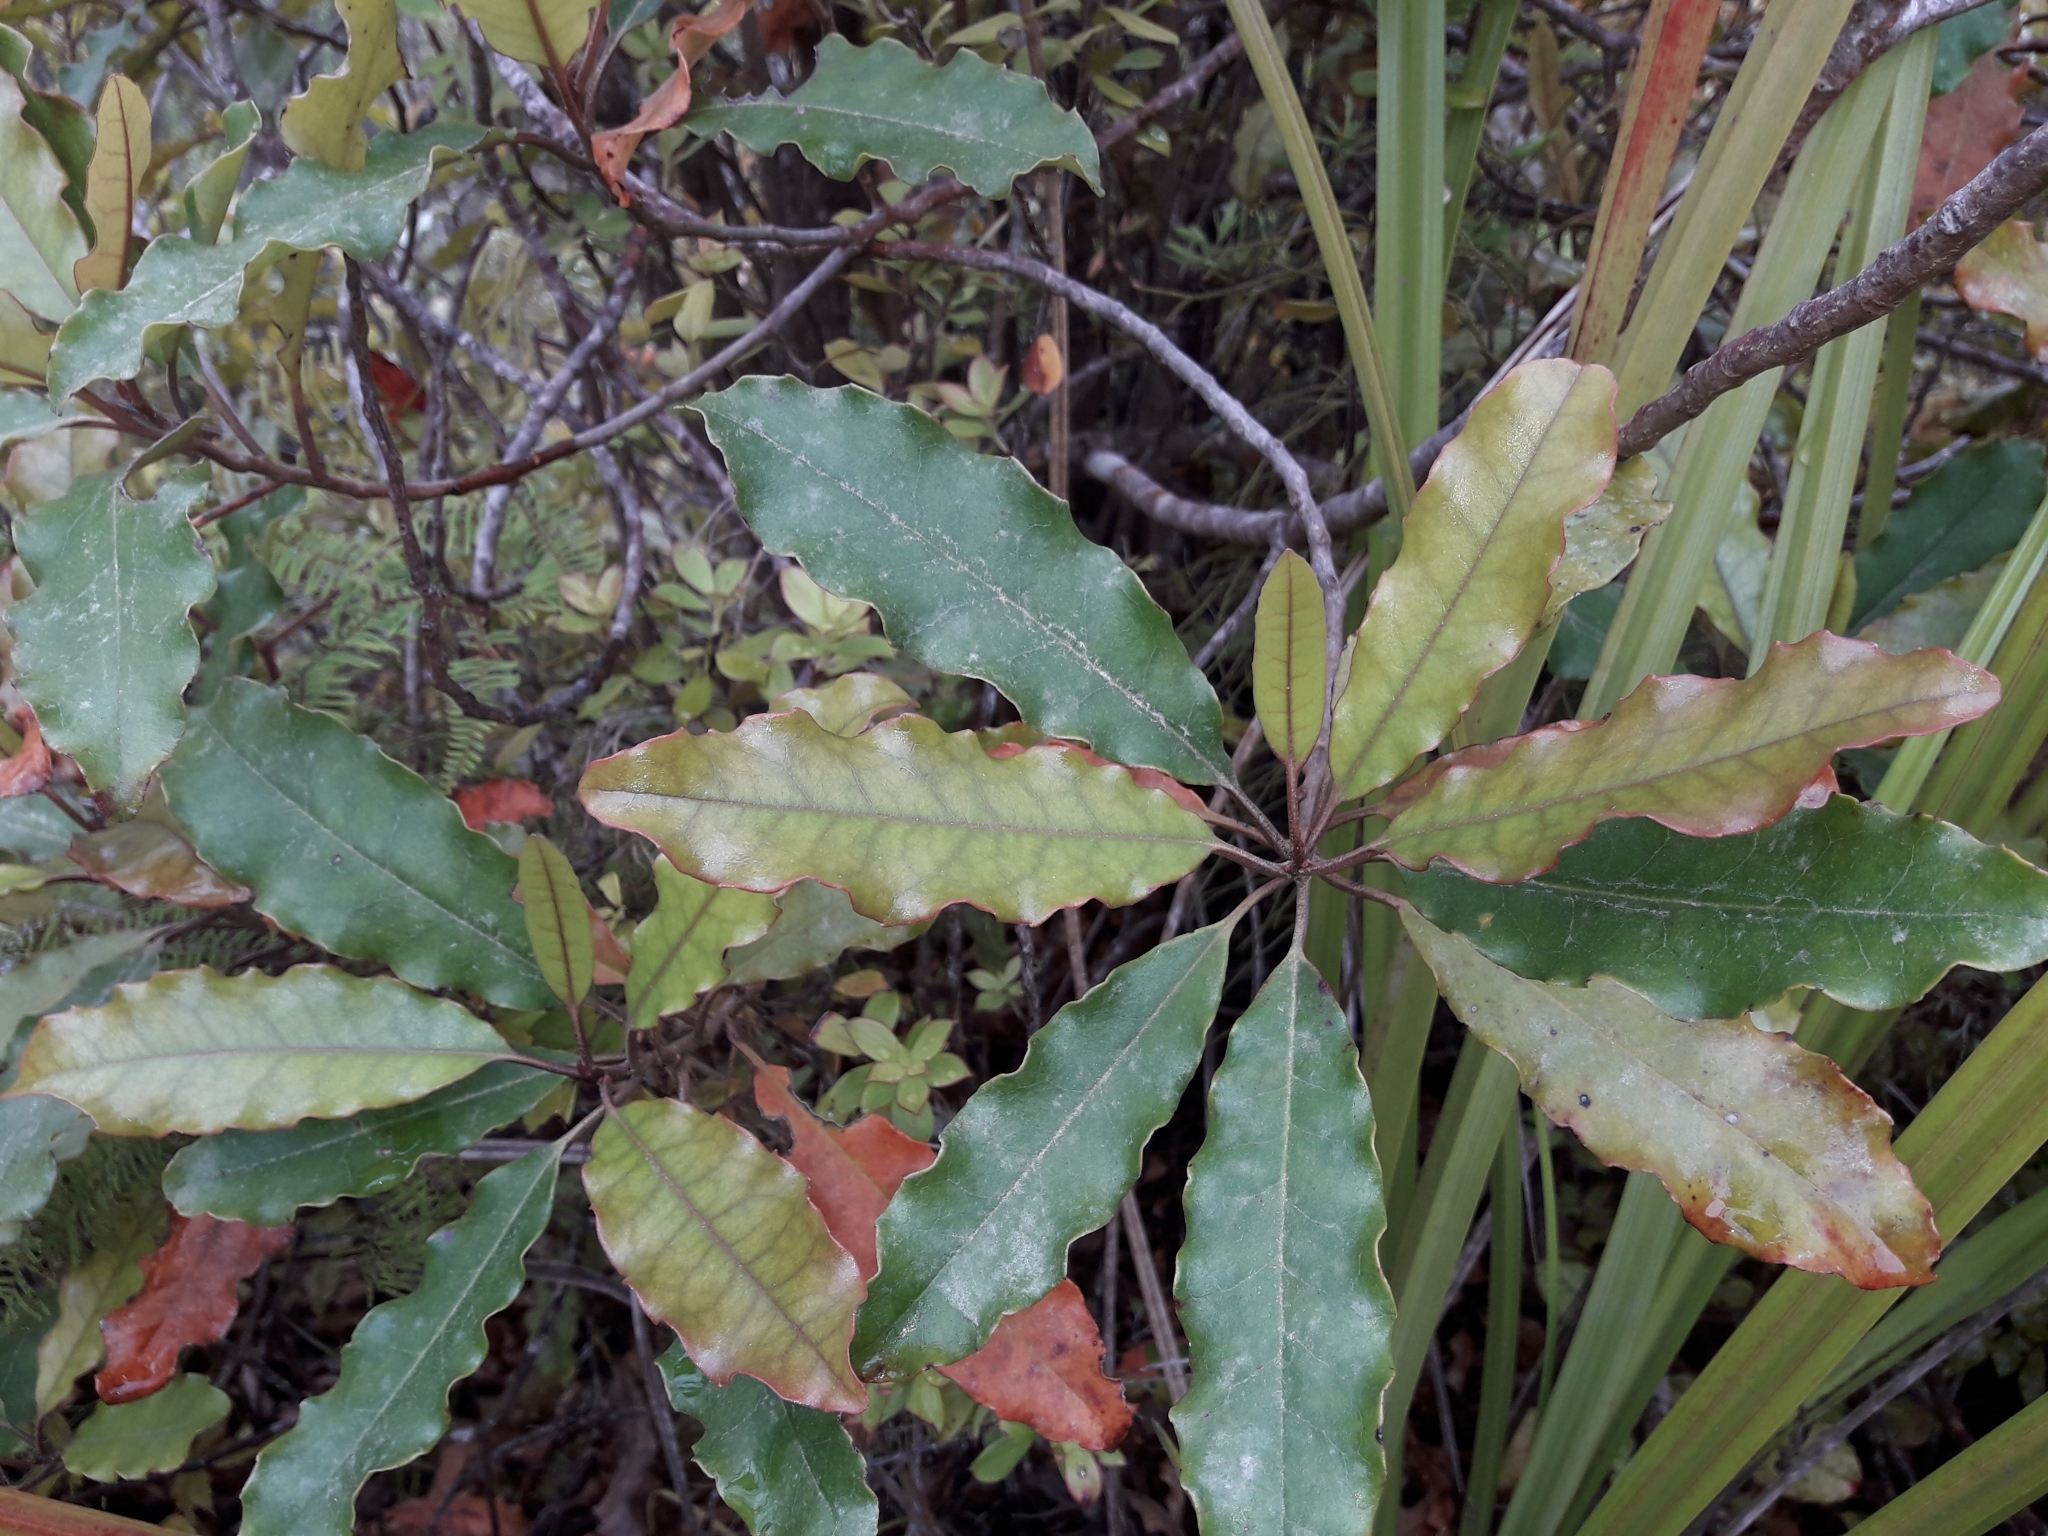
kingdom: Plantae
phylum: Tracheophyta
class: Magnoliopsida
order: Paracryphiales
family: Paracryphiaceae
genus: Quintinia
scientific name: Quintinia serrata
